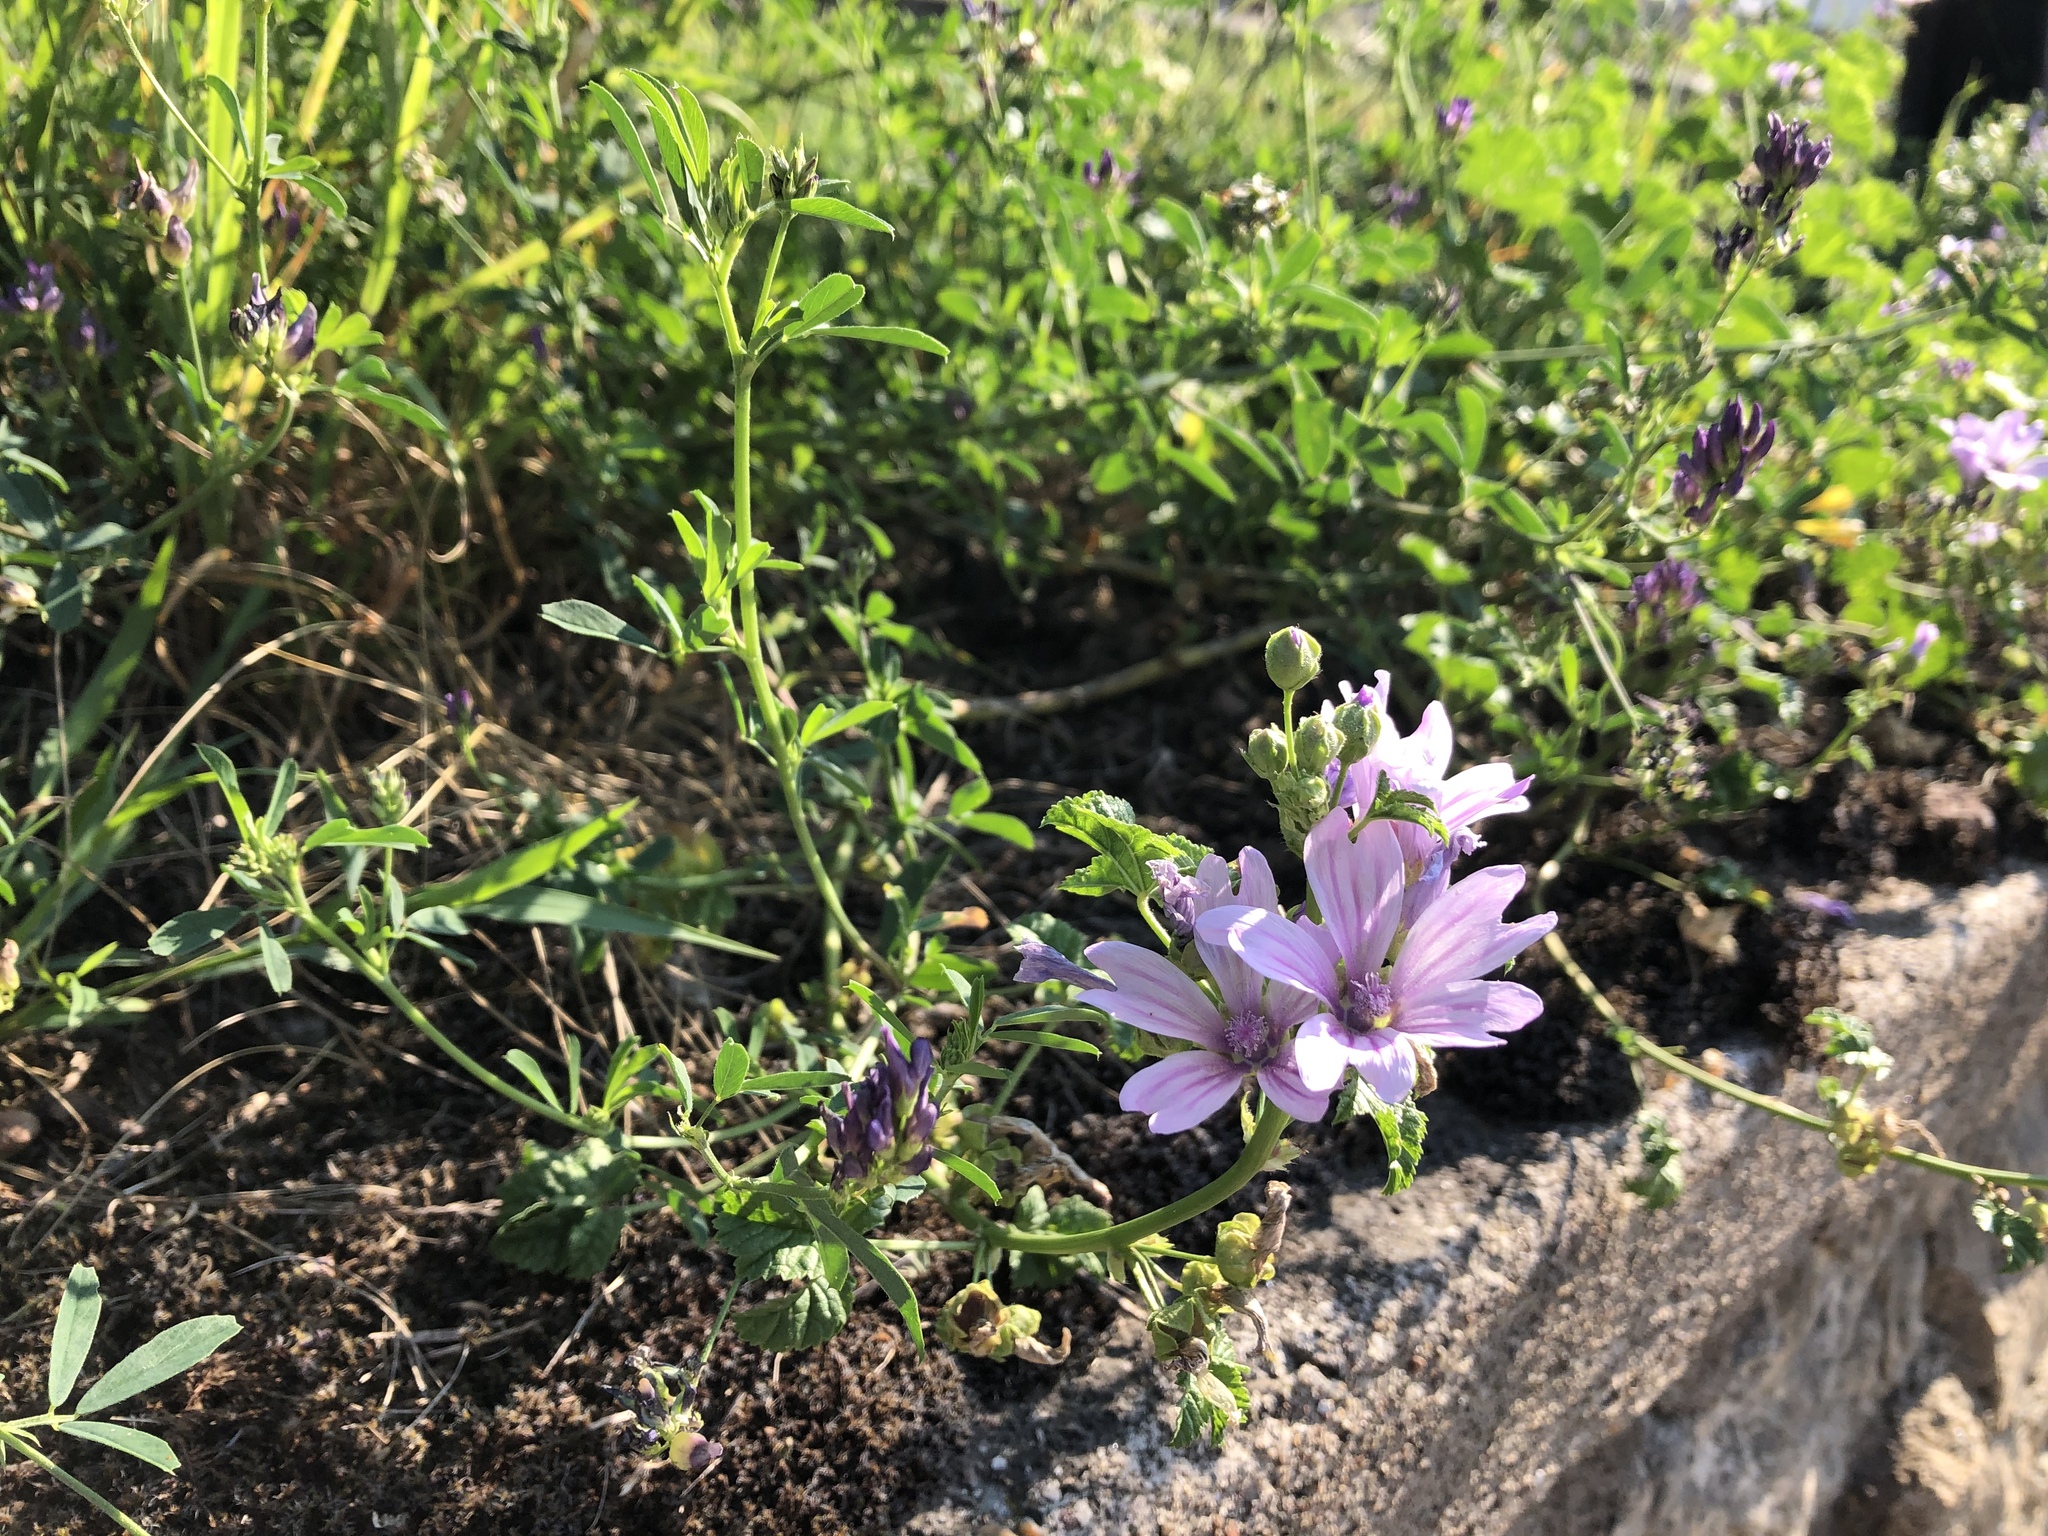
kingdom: Plantae
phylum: Tracheophyta
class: Magnoliopsida
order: Malvales
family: Malvaceae
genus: Malva
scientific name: Malva sylvestris
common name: Common mallow
